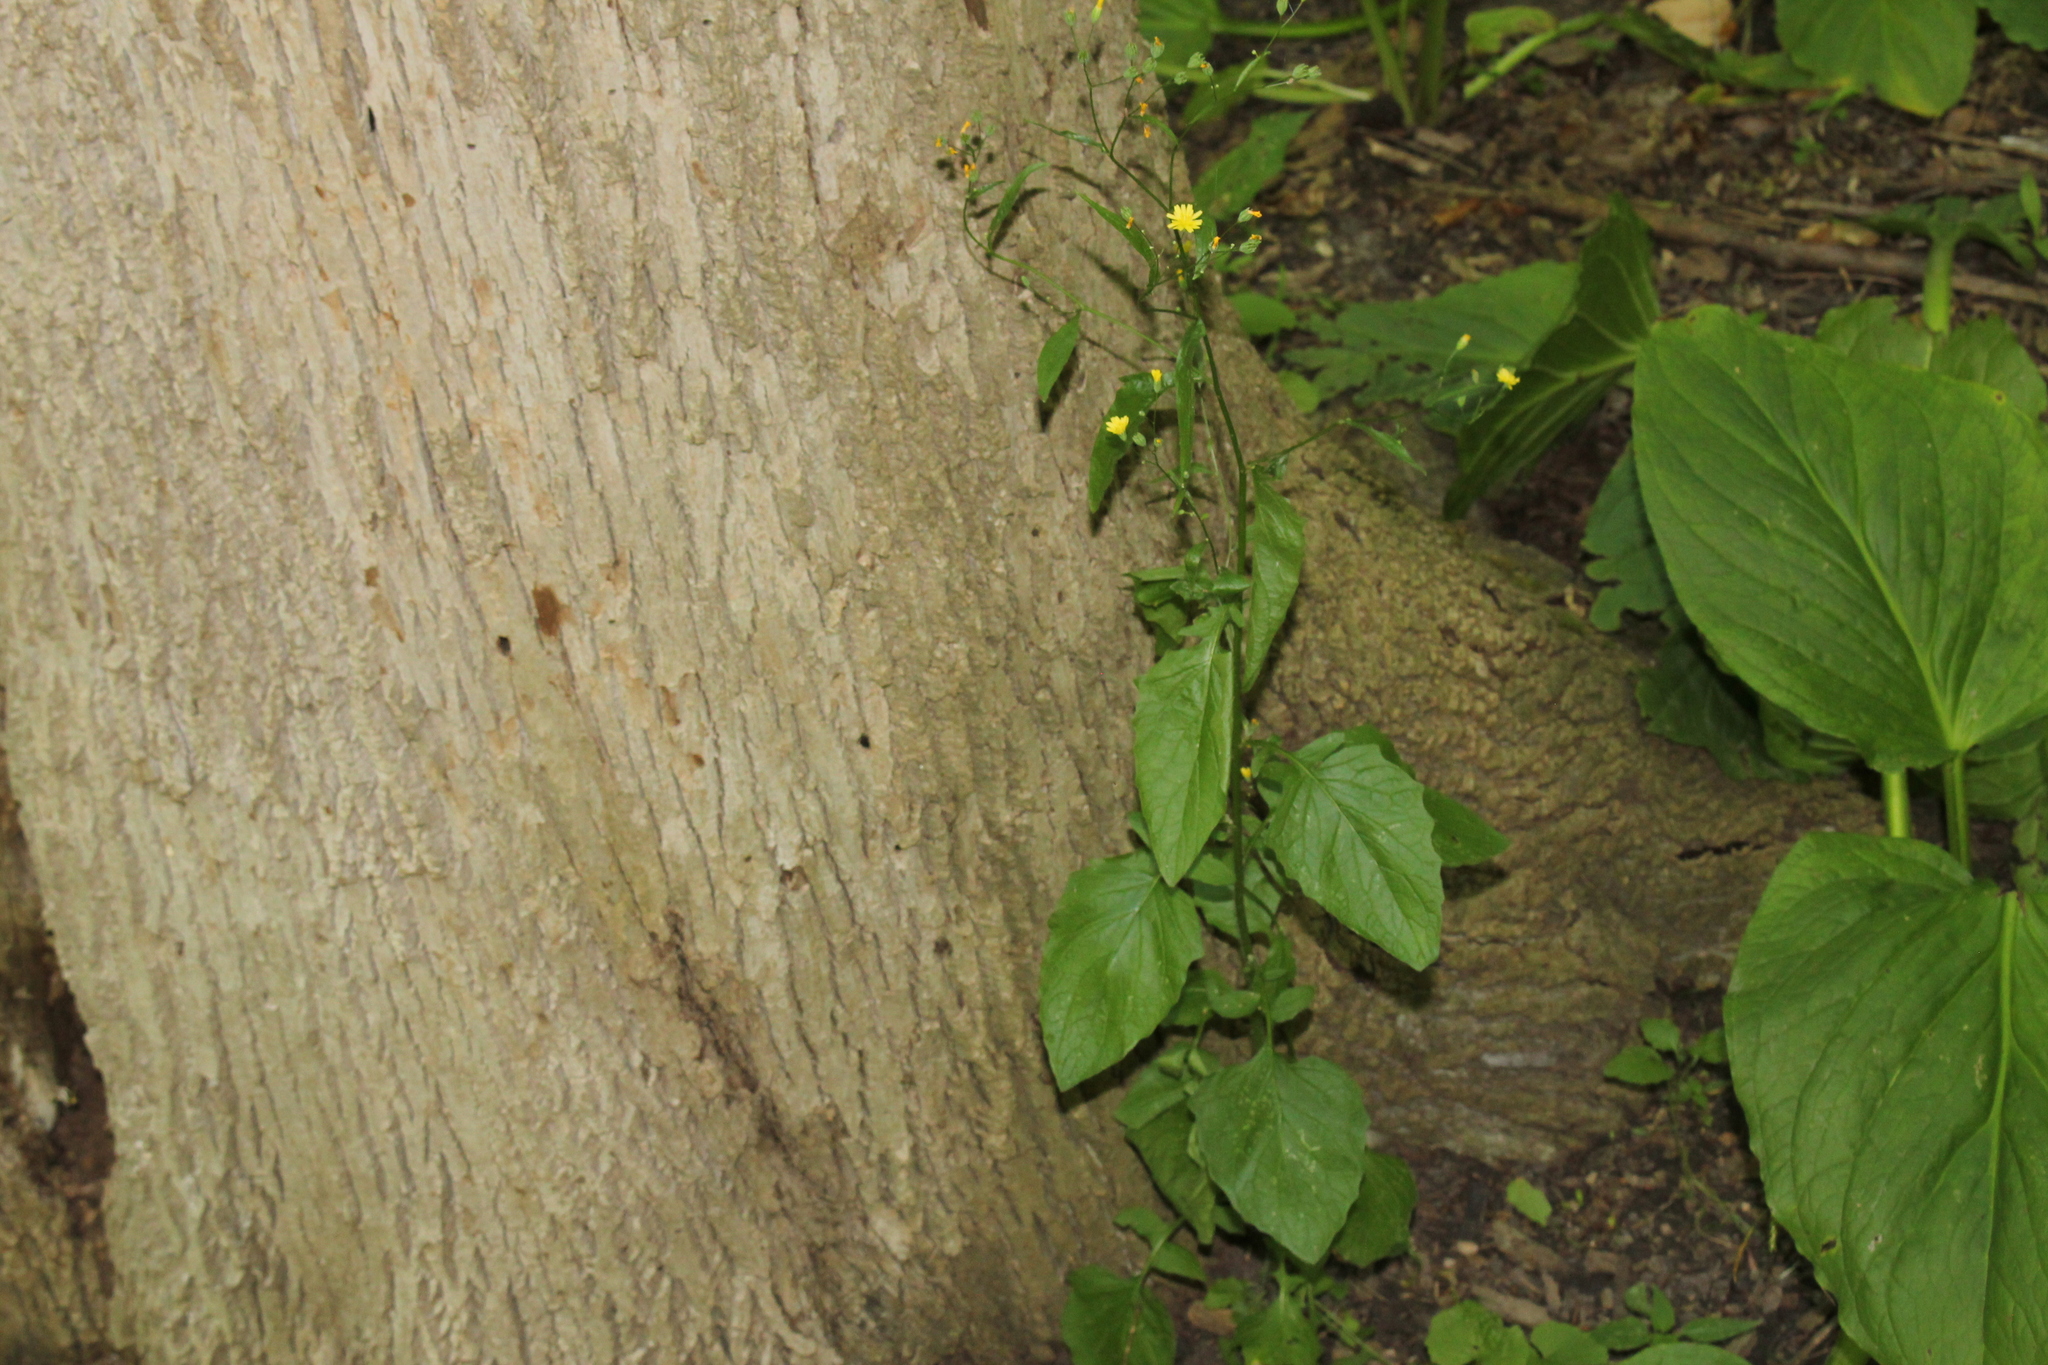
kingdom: Plantae
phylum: Tracheophyta
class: Magnoliopsida
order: Asterales
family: Asteraceae
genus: Lapsana
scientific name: Lapsana communis
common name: Nipplewort
